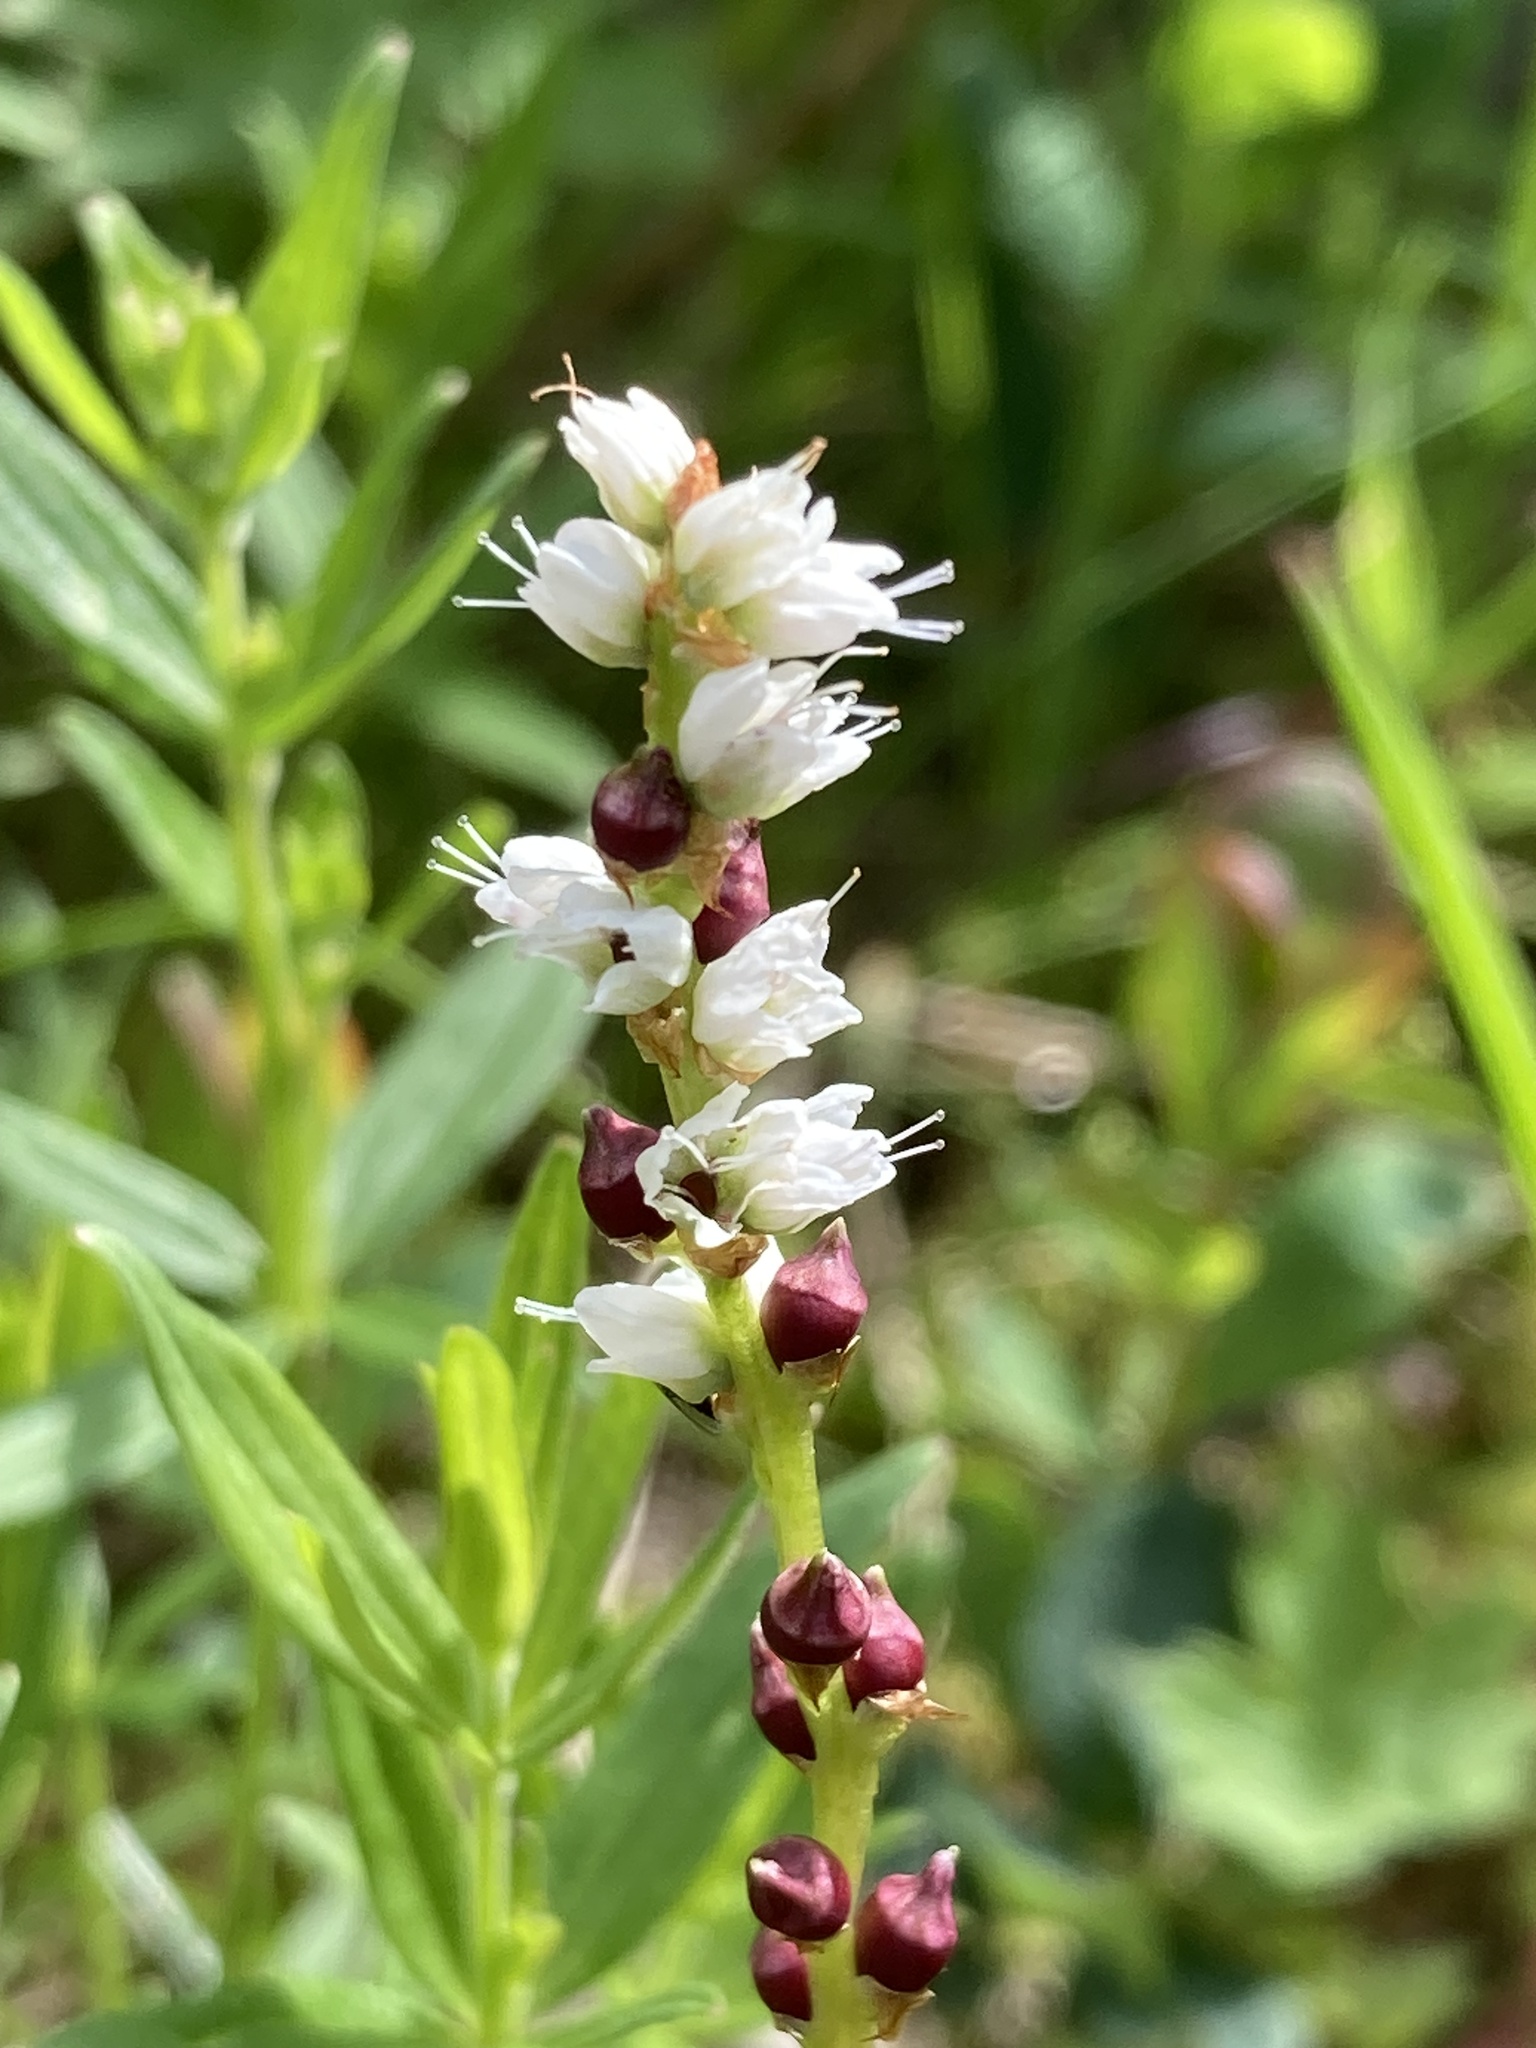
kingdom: Plantae
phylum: Tracheophyta
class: Magnoliopsida
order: Caryophyllales
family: Polygonaceae
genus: Bistorta
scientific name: Bistorta vivipara
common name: Alpine bistort
